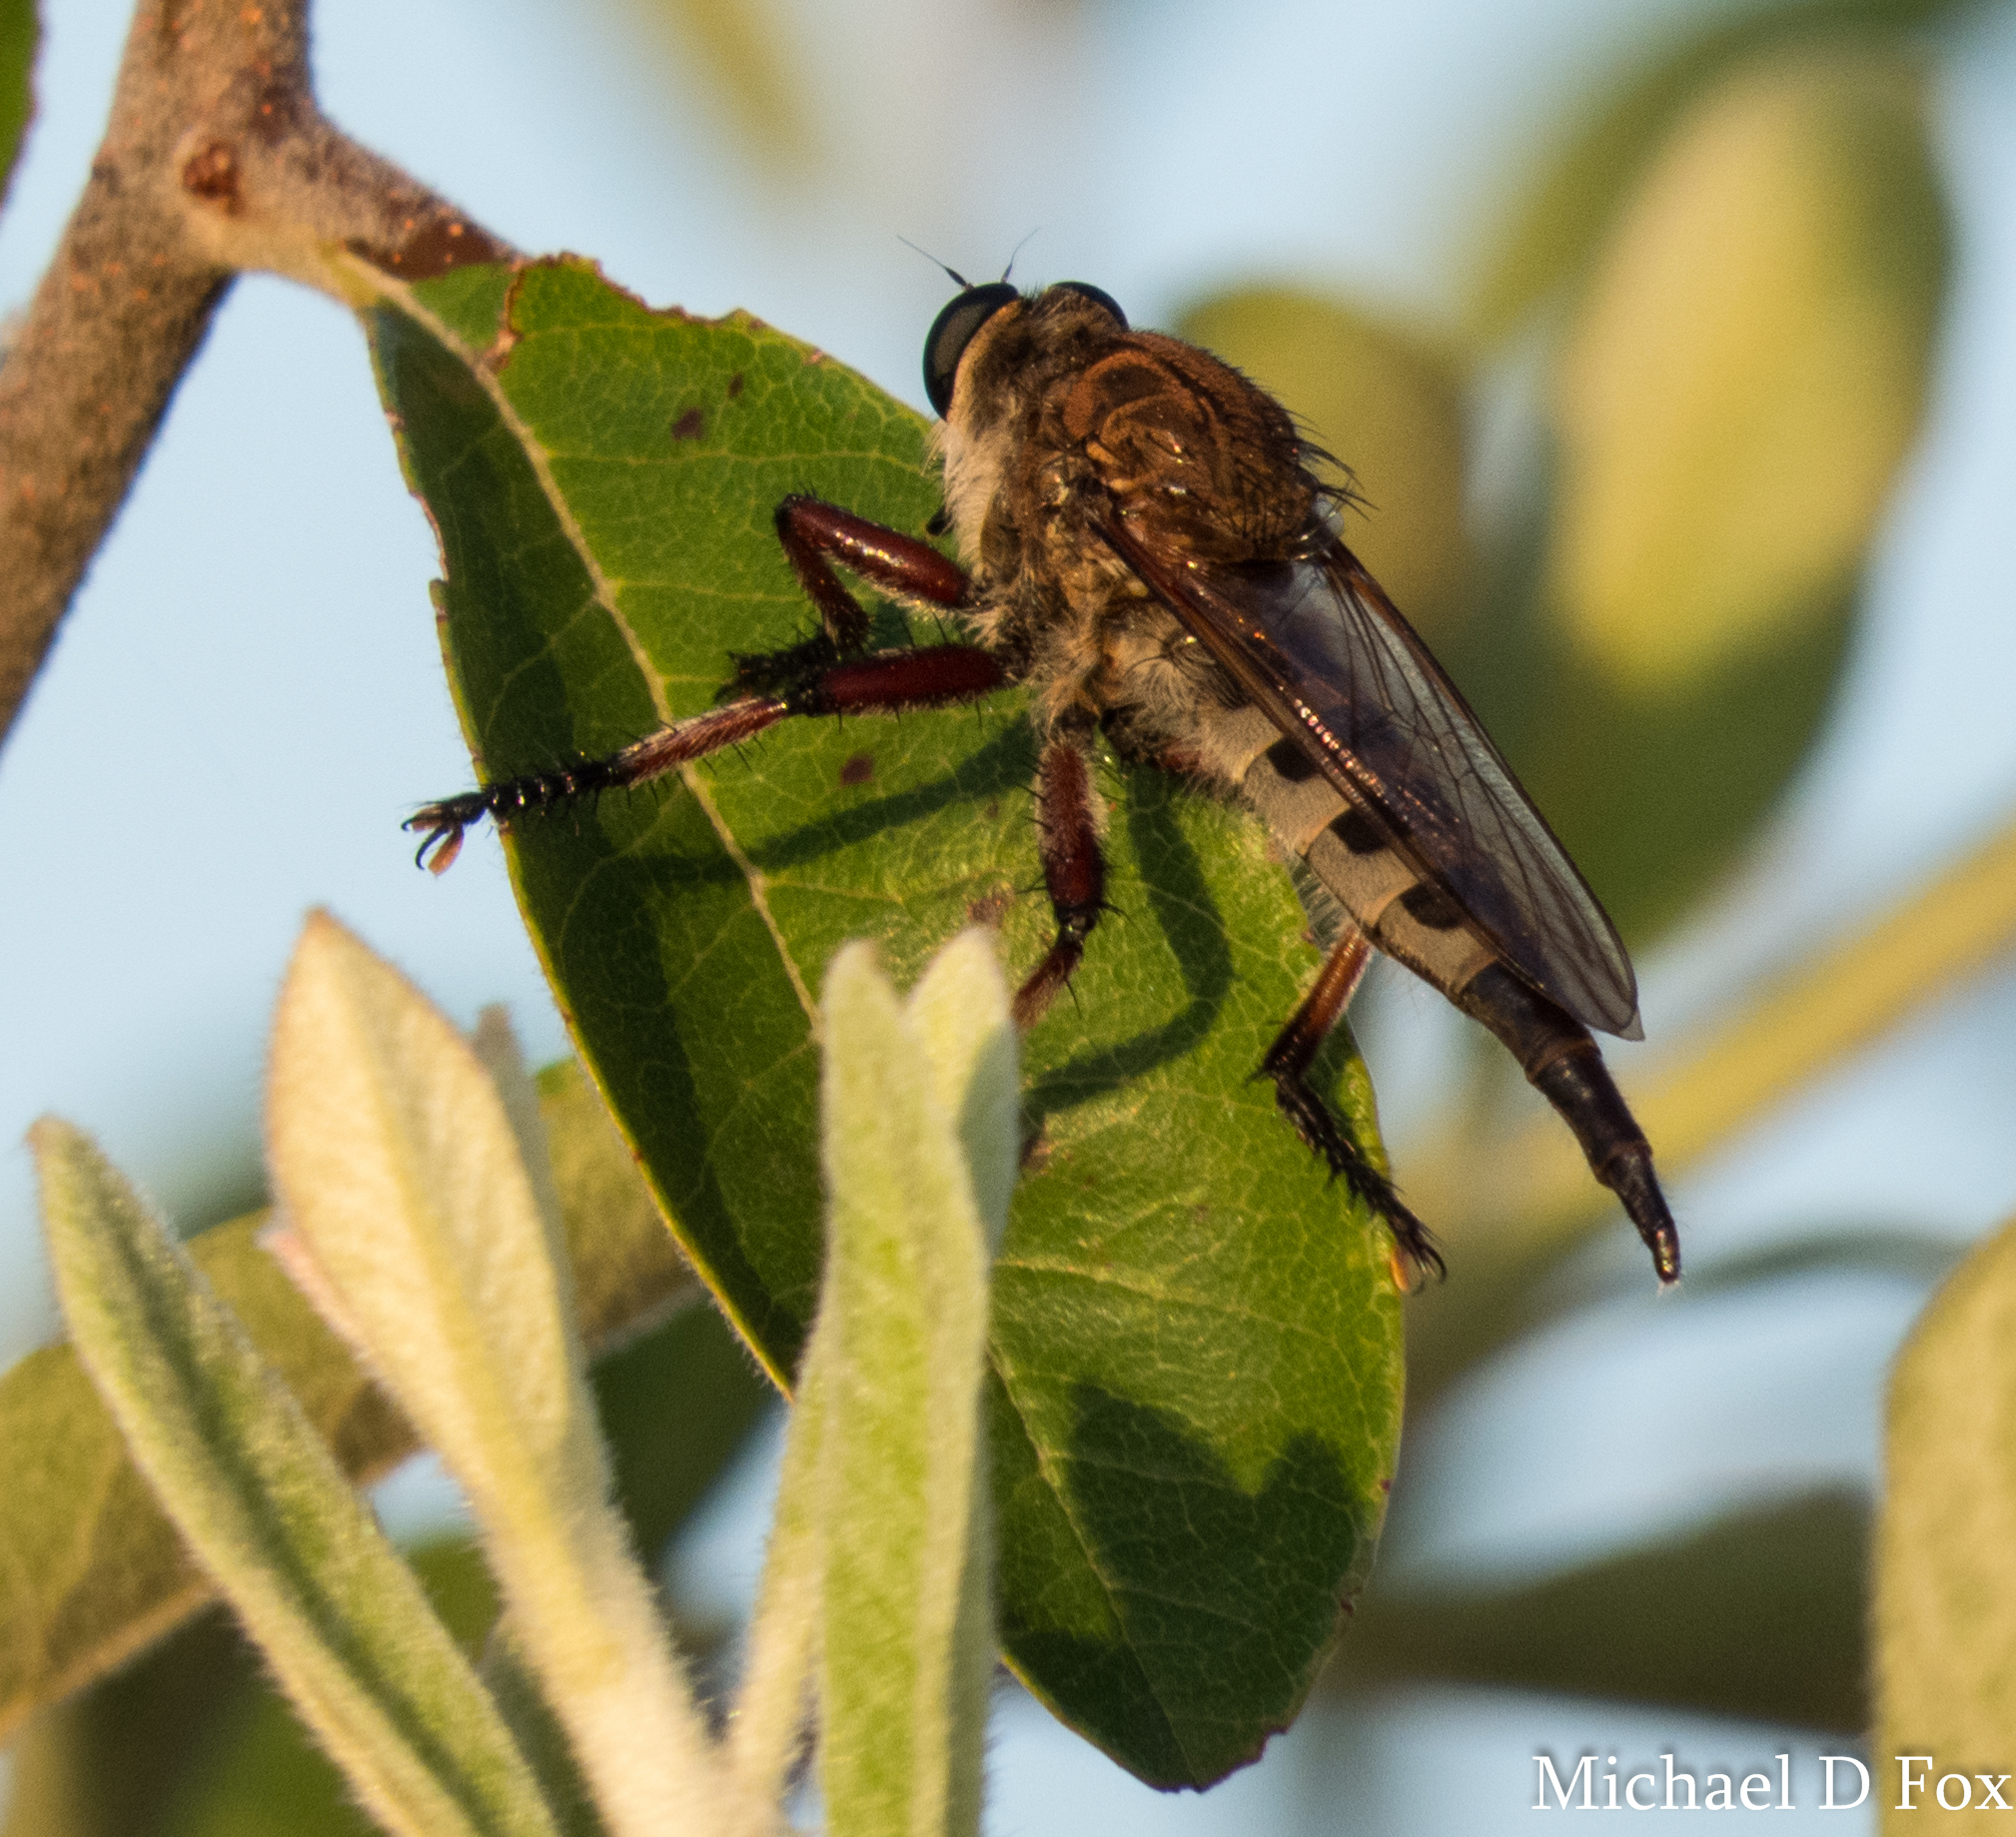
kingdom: Animalia
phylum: Arthropoda
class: Insecta
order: Diptera
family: Asilidae
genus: Promachus
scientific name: Promachus hinei
